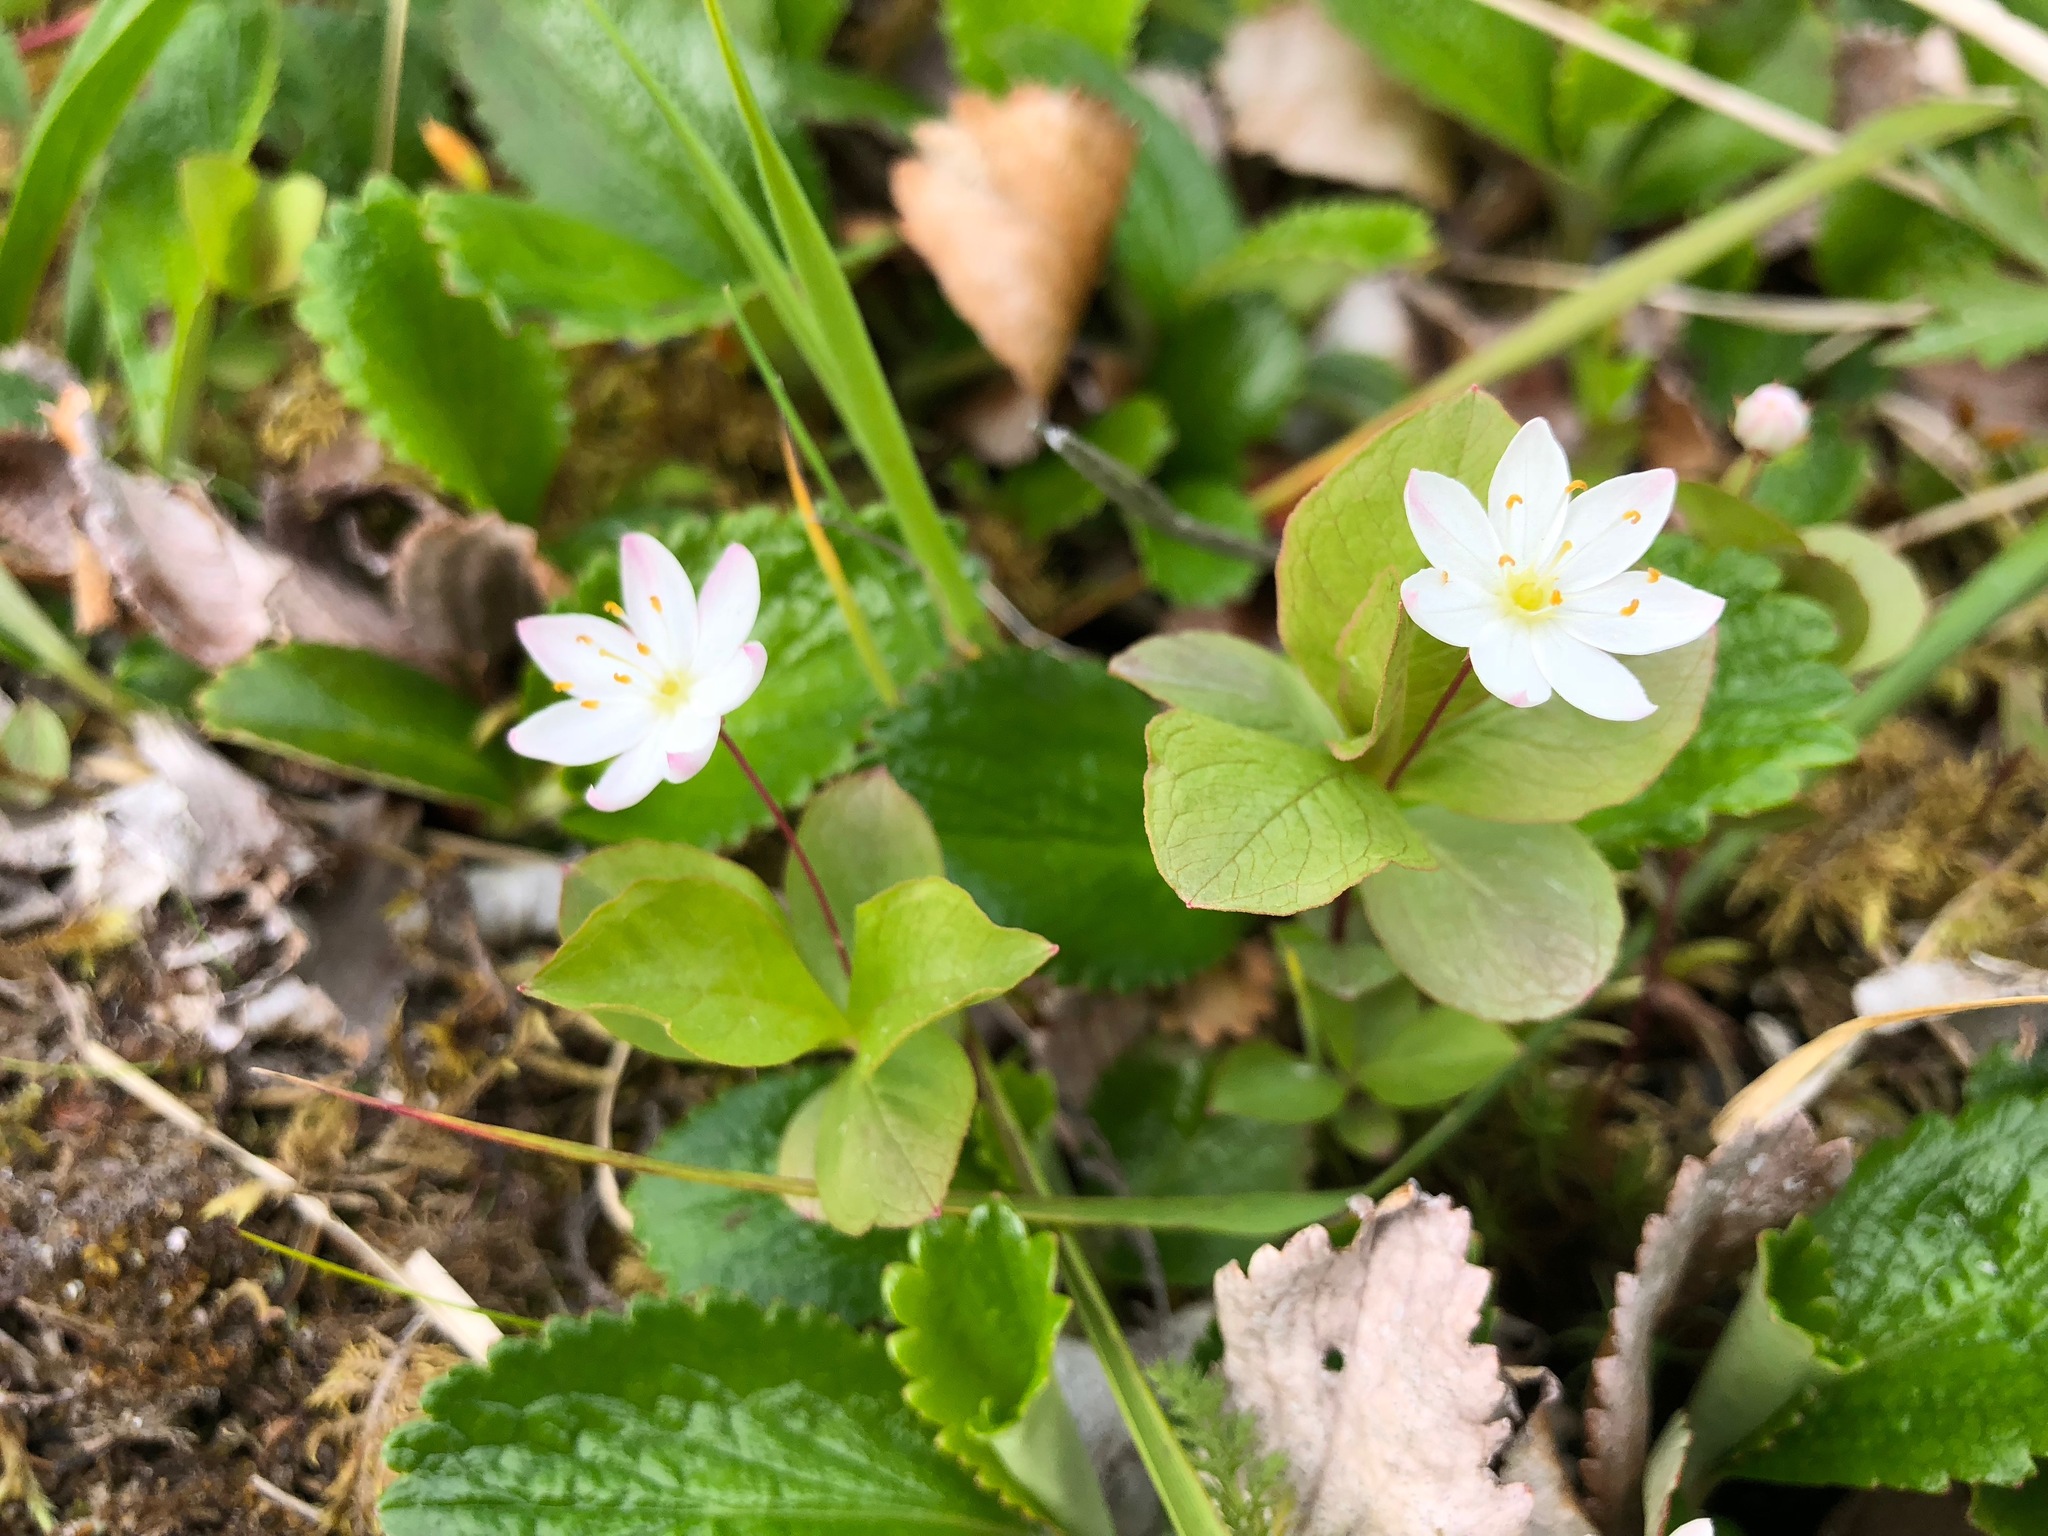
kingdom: Plantae
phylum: Tracheophyta
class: Magnoliopsida
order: Ericales
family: Primulaceae
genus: Lysimachia
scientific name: Lysimachia europaea
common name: Arctic starflower
